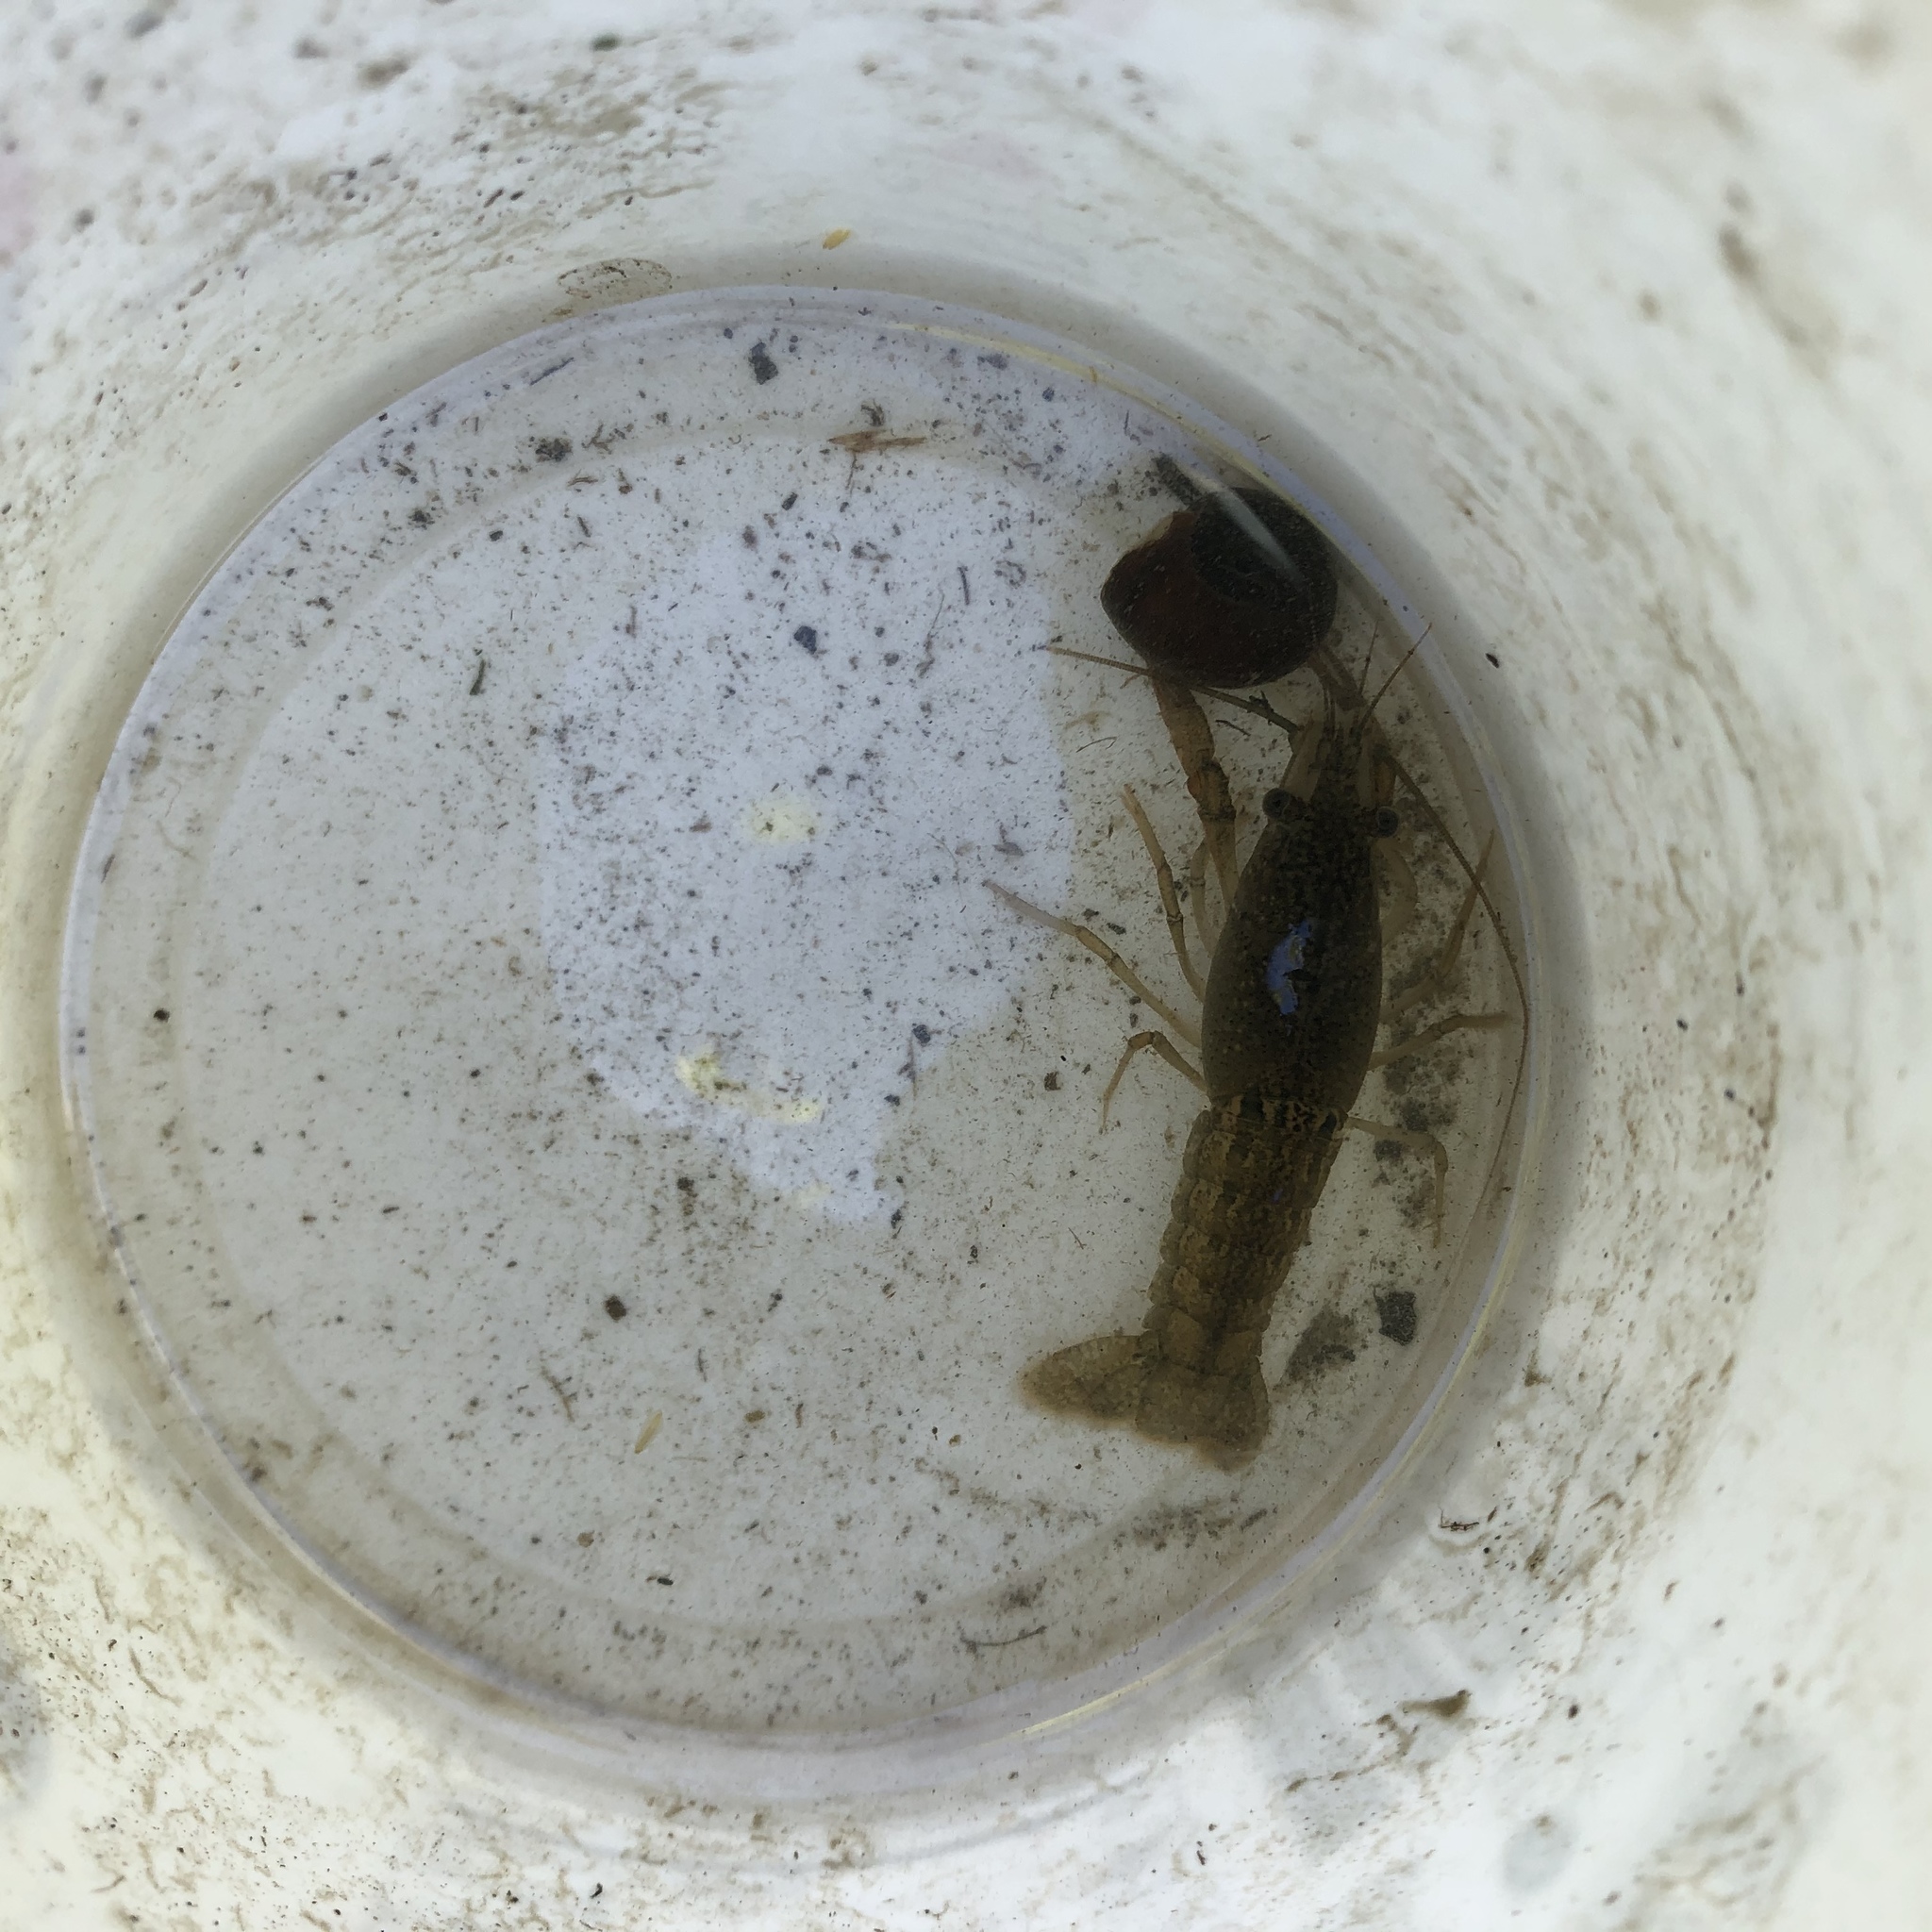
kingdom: Animalia
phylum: Arthropoda
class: Malacostraca
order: Decapoda
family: Cambaridae
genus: Procambarus
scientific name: Procambarus clarkii
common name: Red swamp crayfish
